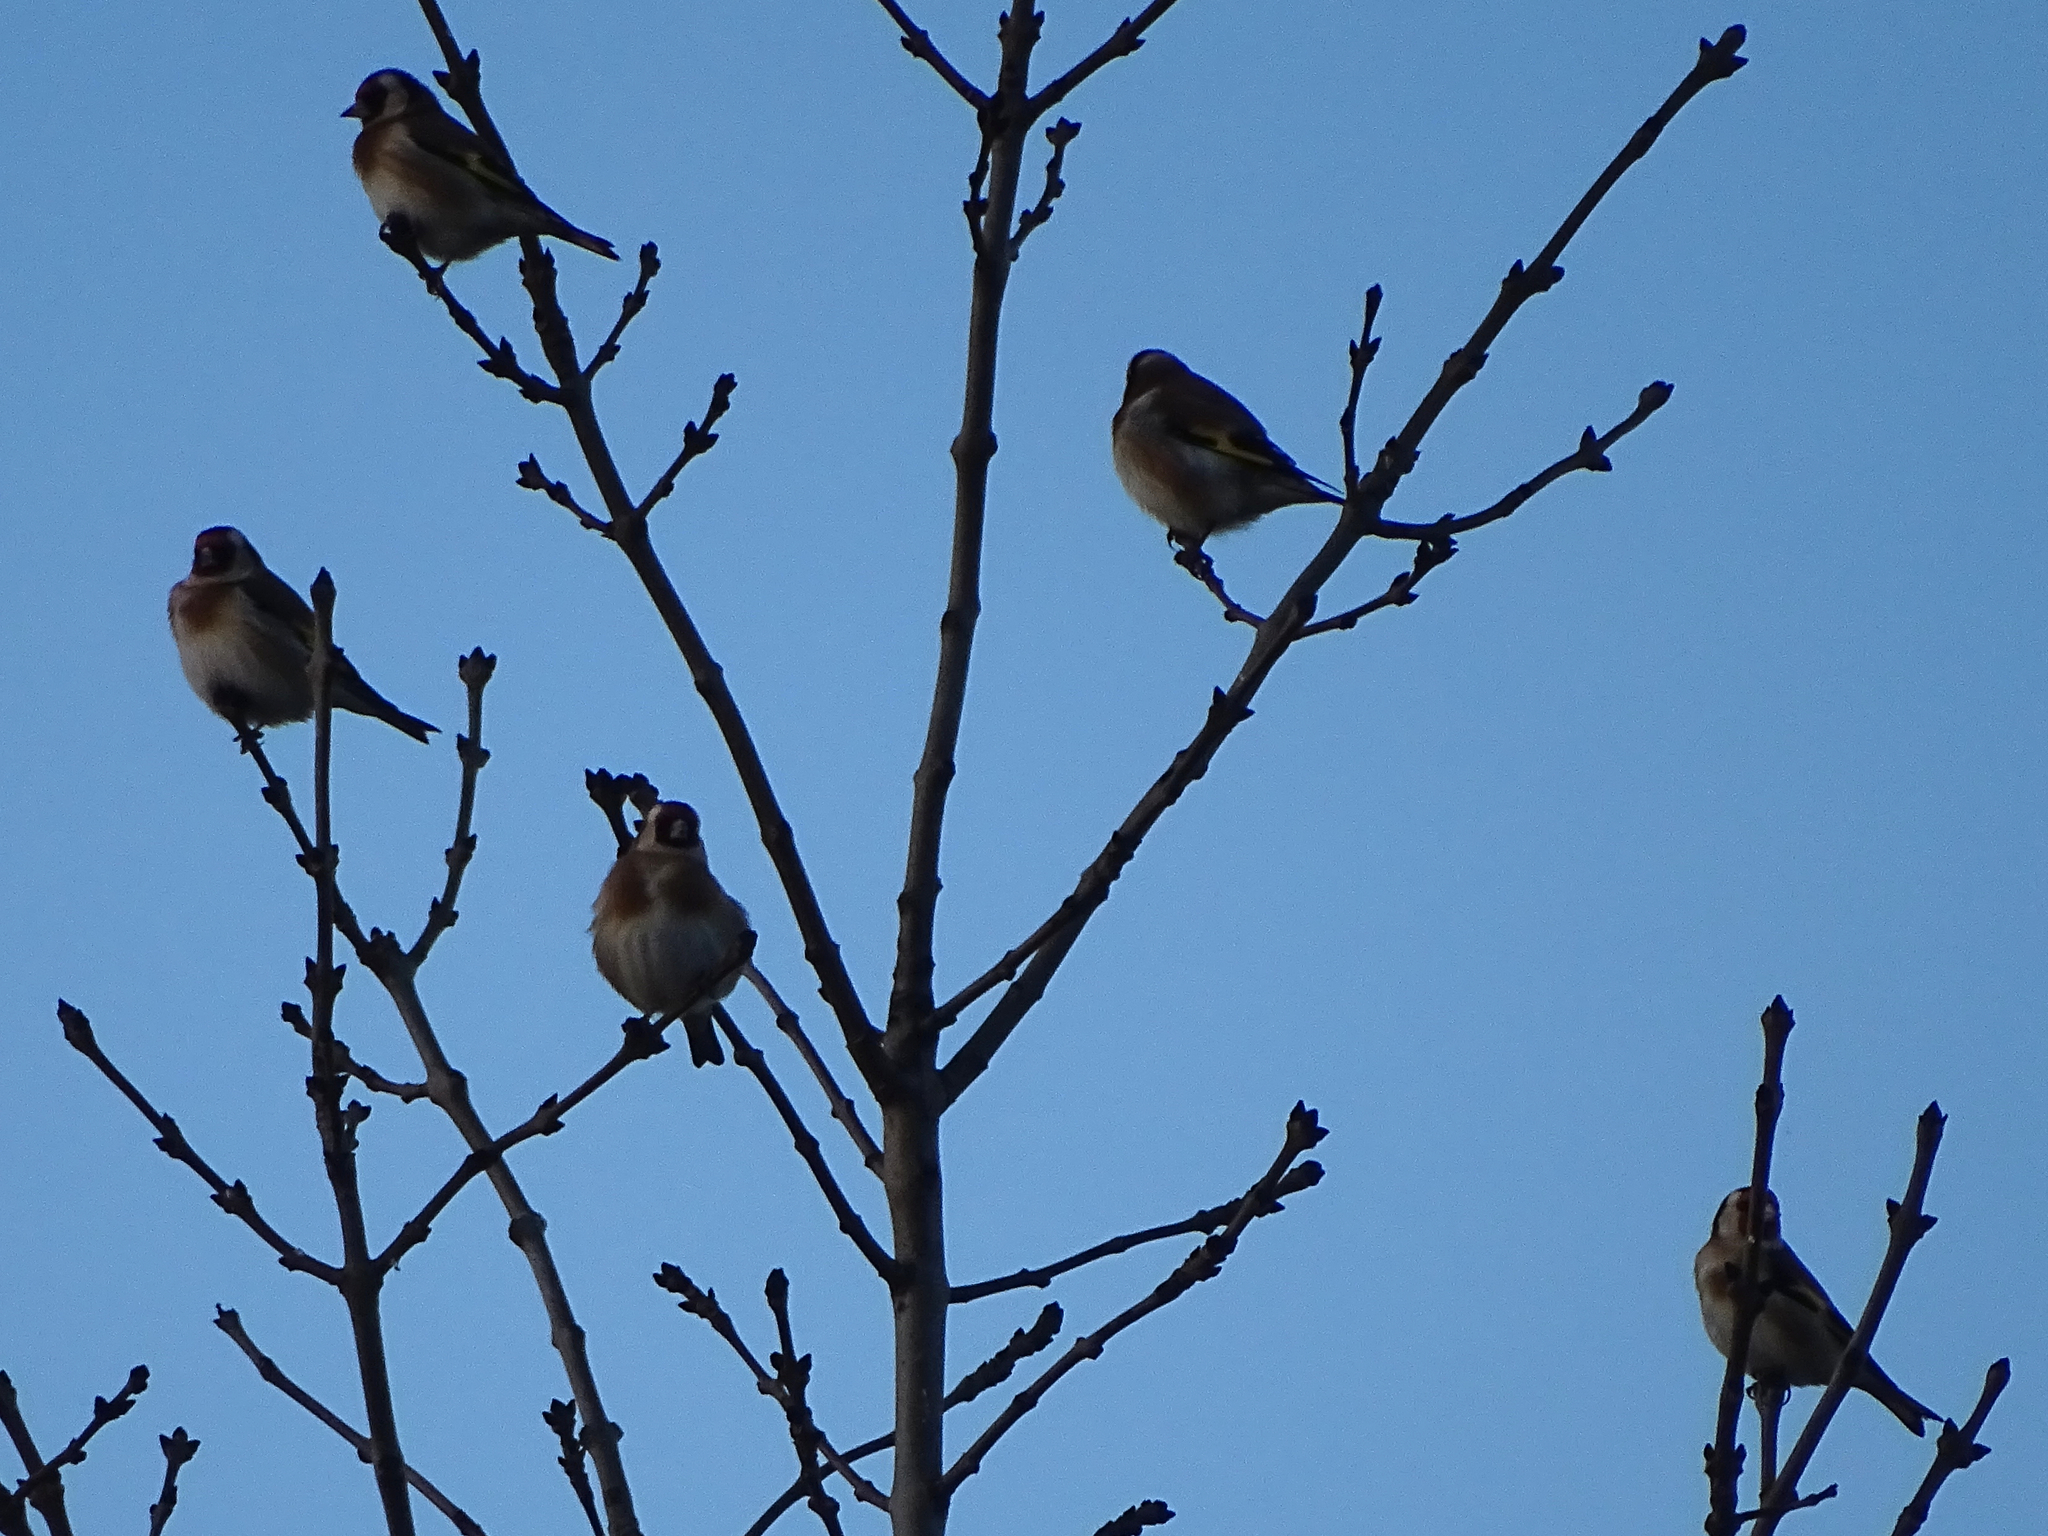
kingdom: Animalia
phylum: Chordata
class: Aves
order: Passeriformes
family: Fringillidae
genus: Carduelis
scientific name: Carduelis carduelis
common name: European goldfinch
